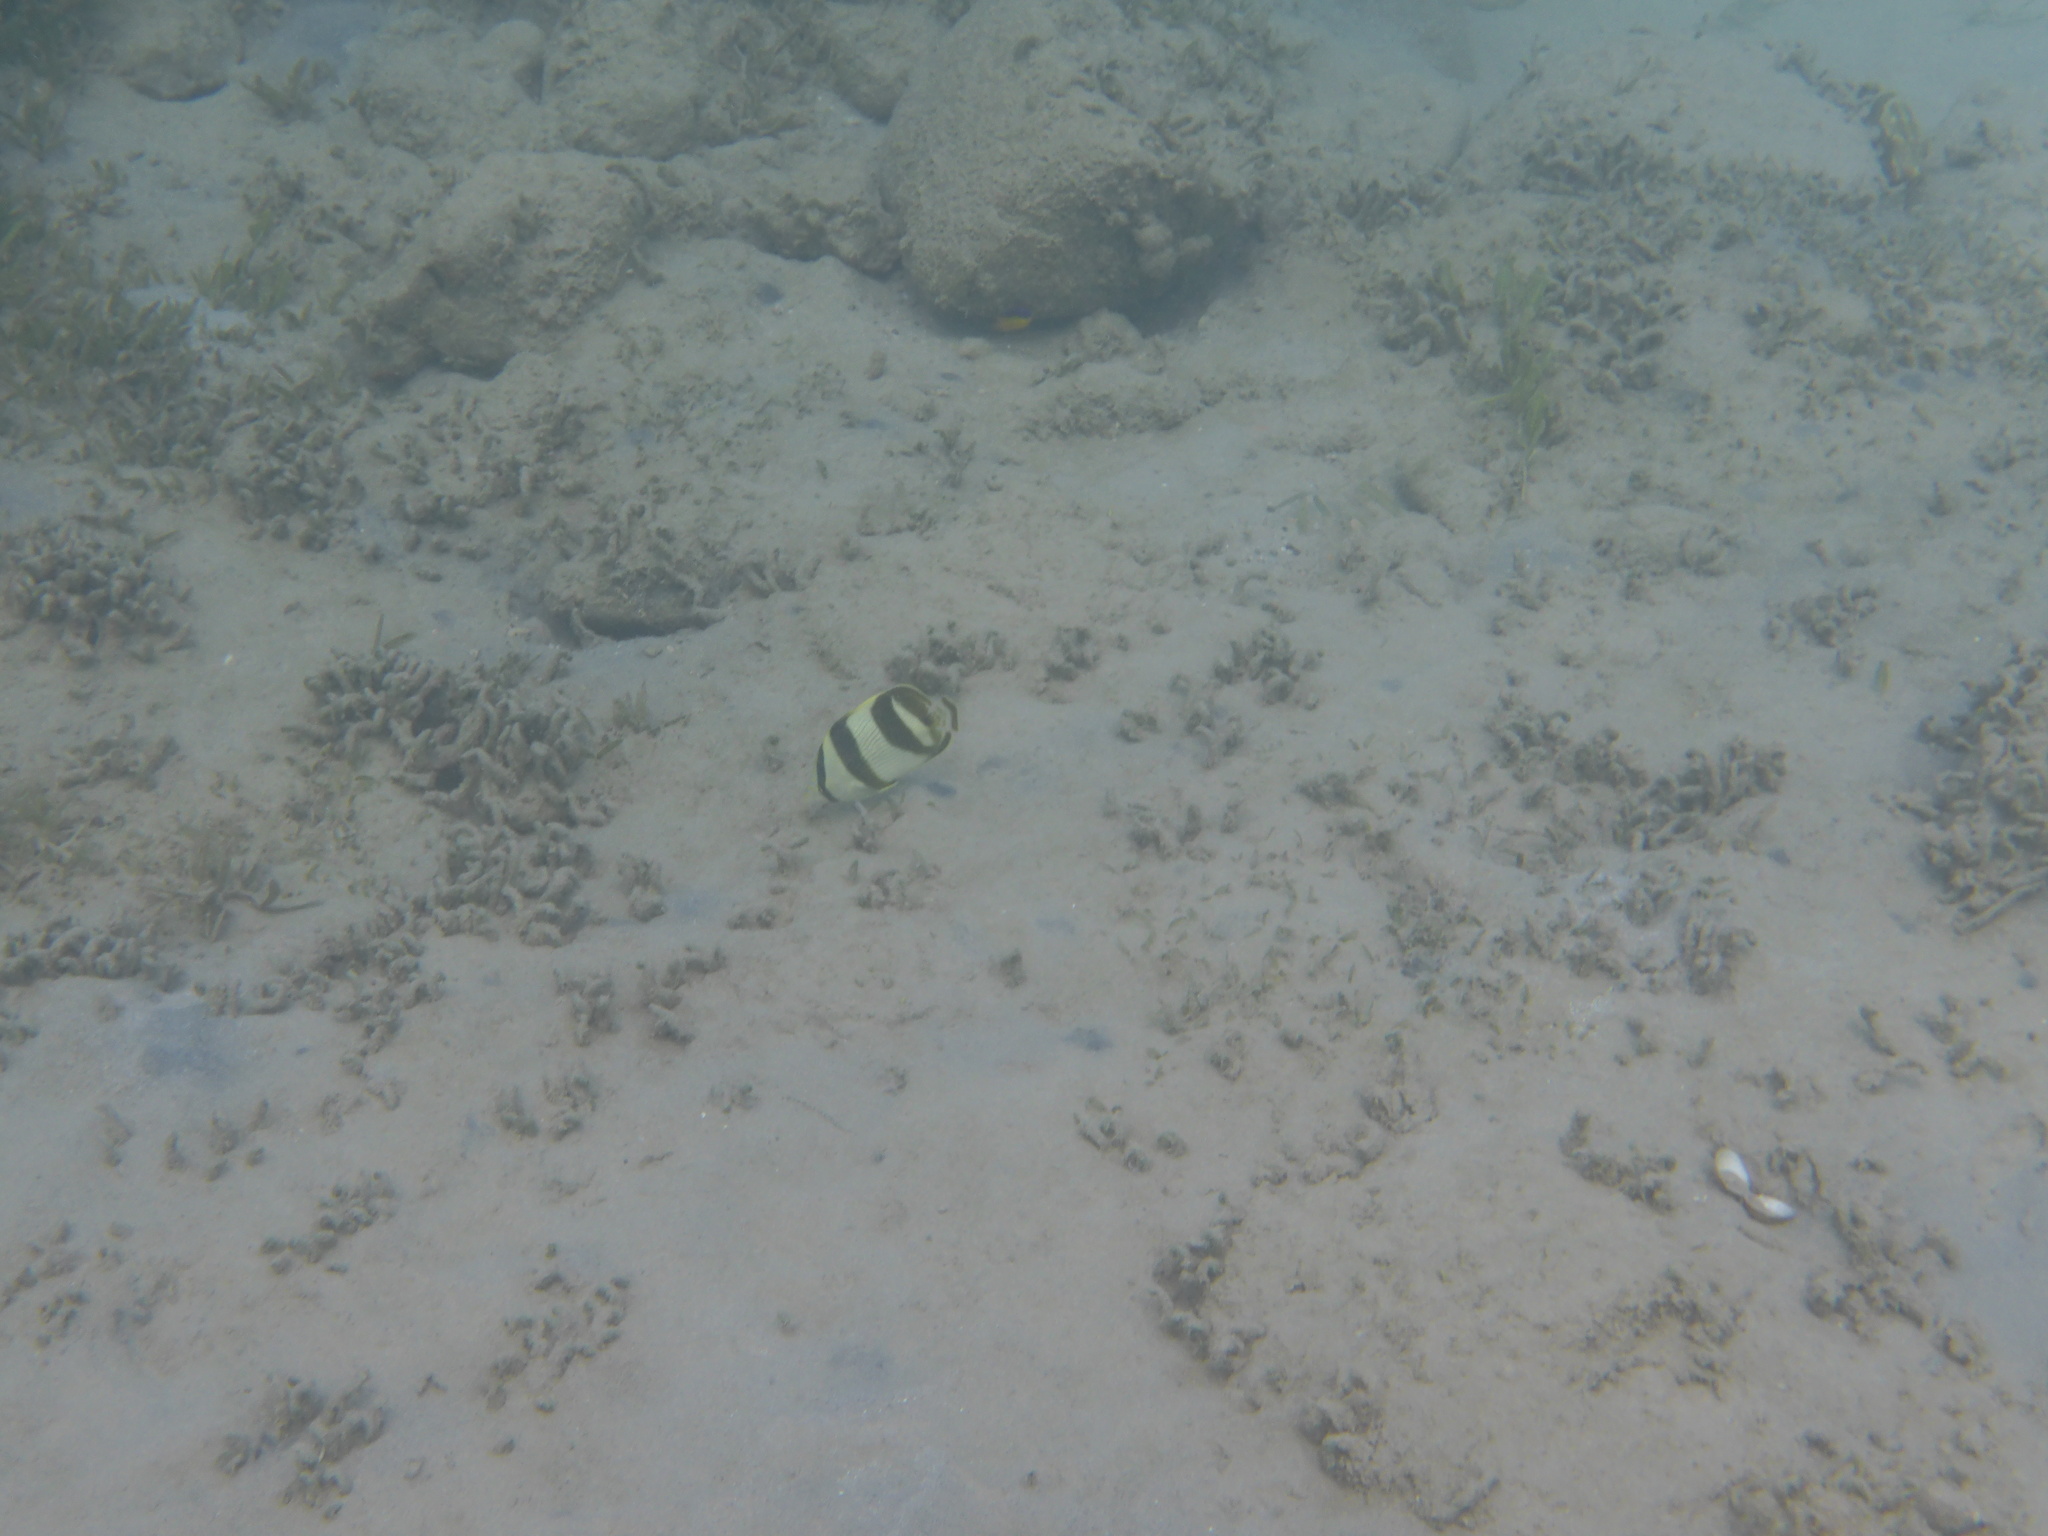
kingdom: Animalia
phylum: Chordata
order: Perciformes
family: Chaetodontidae
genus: Chaetodon
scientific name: Chaetodon striatus
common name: Banded butterflyfish
